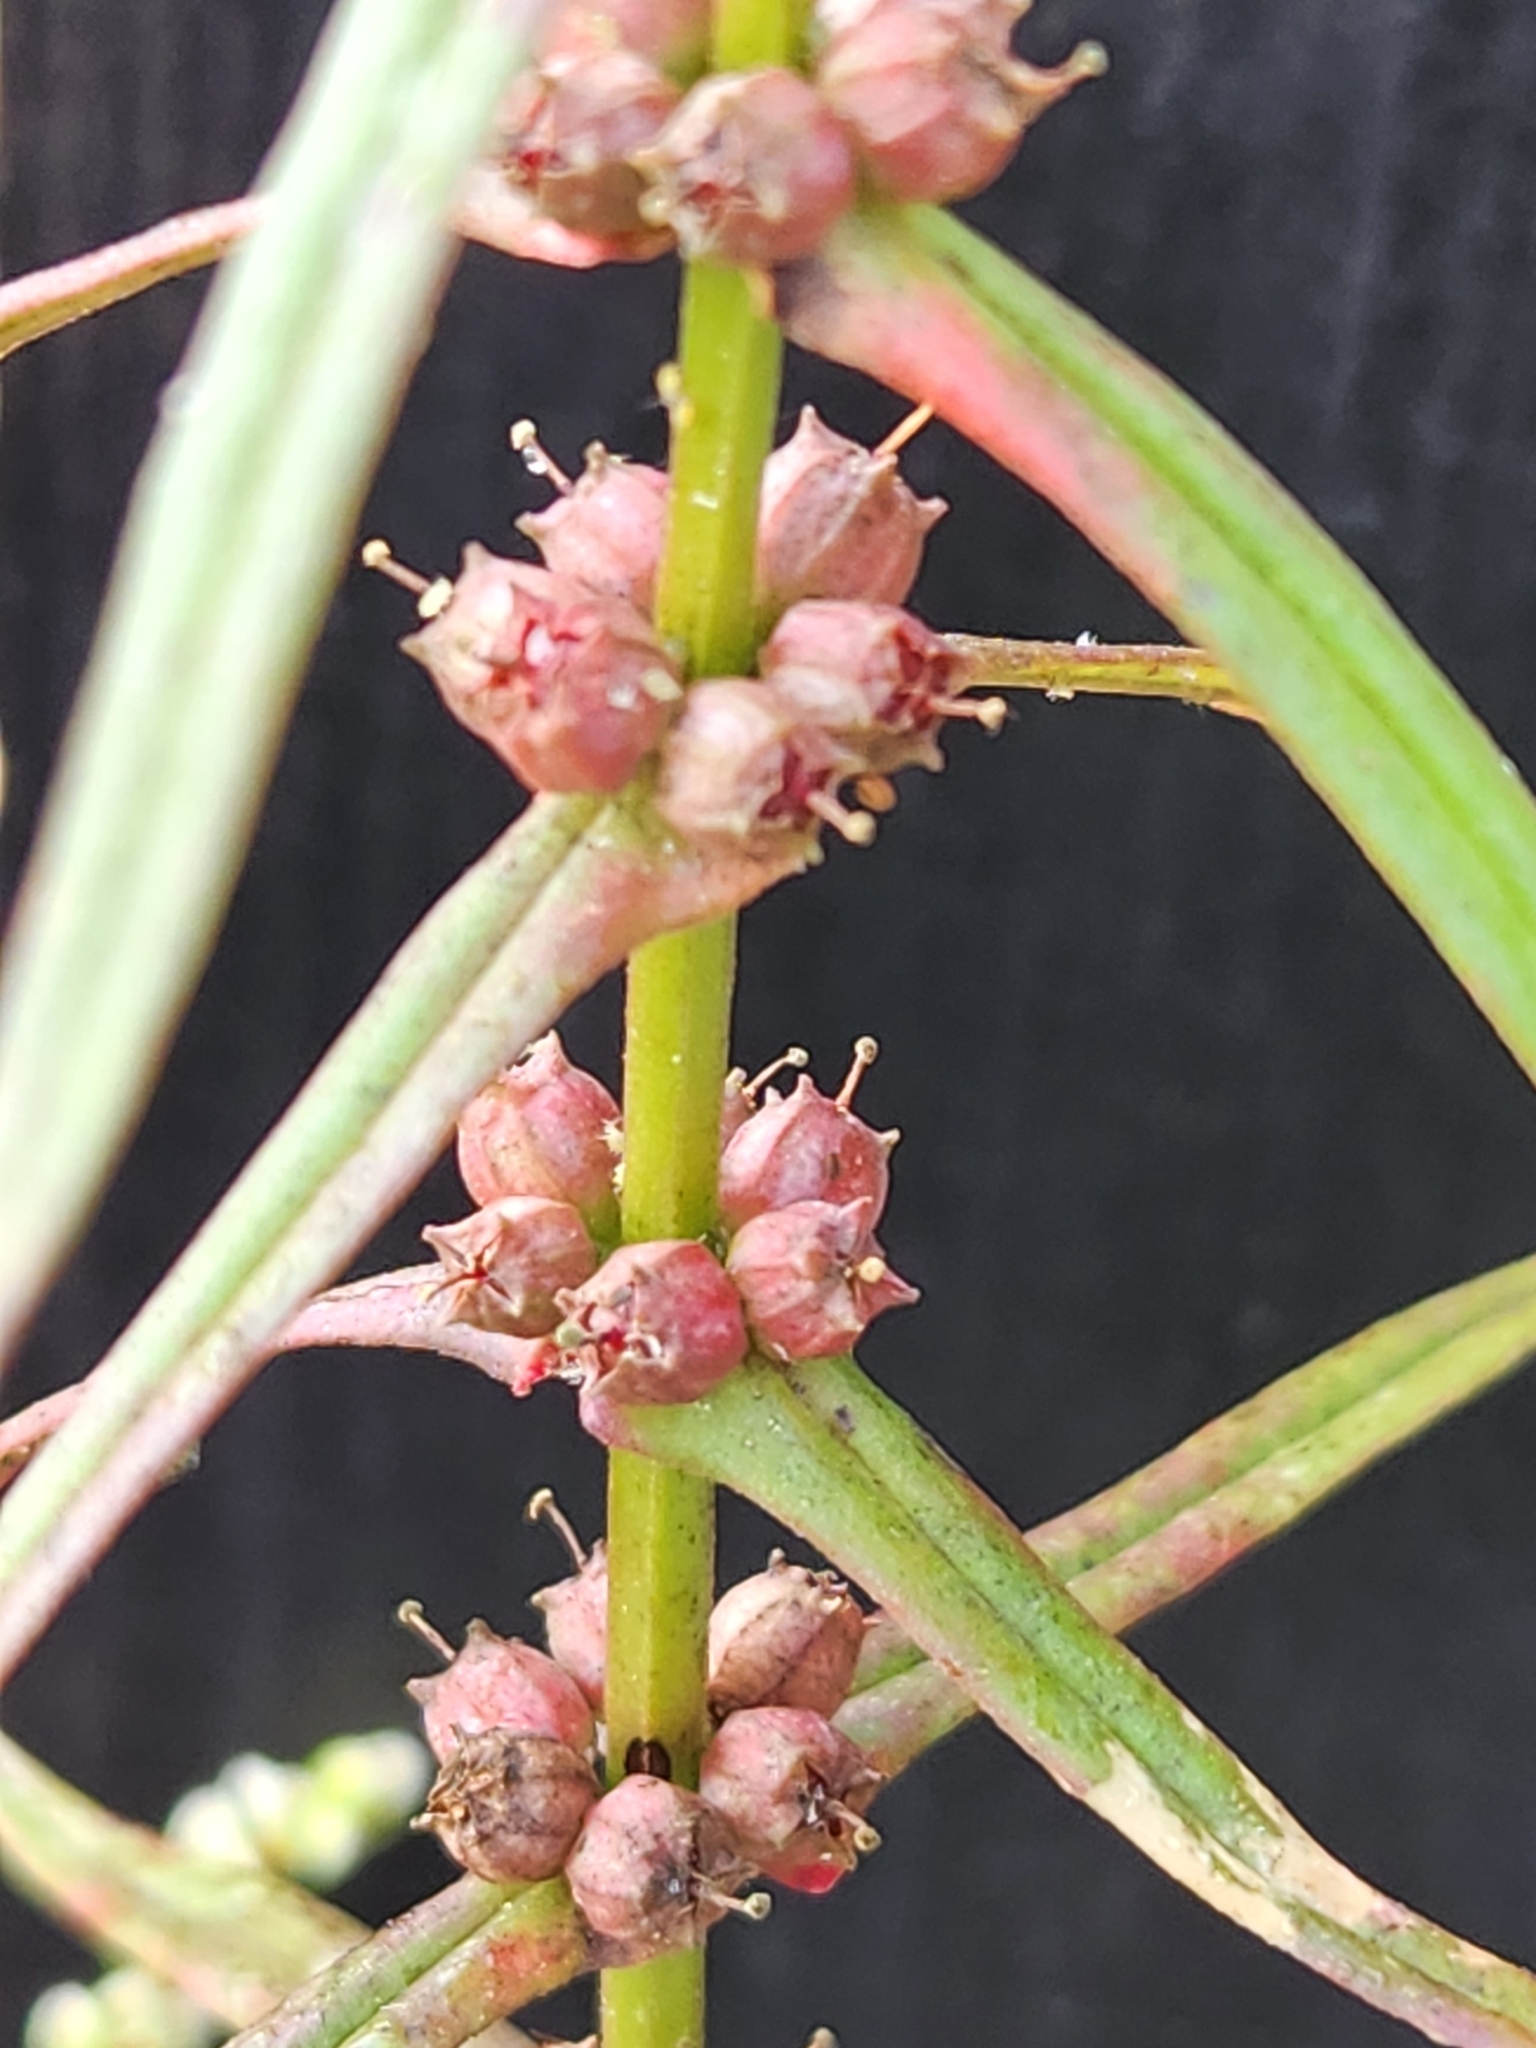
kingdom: Plantae
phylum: Tracheophyta
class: Magnoliopsida
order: Myrtales
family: Lythraceae
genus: Ammannia
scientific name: Ammannia coccinea
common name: Valley redstem
